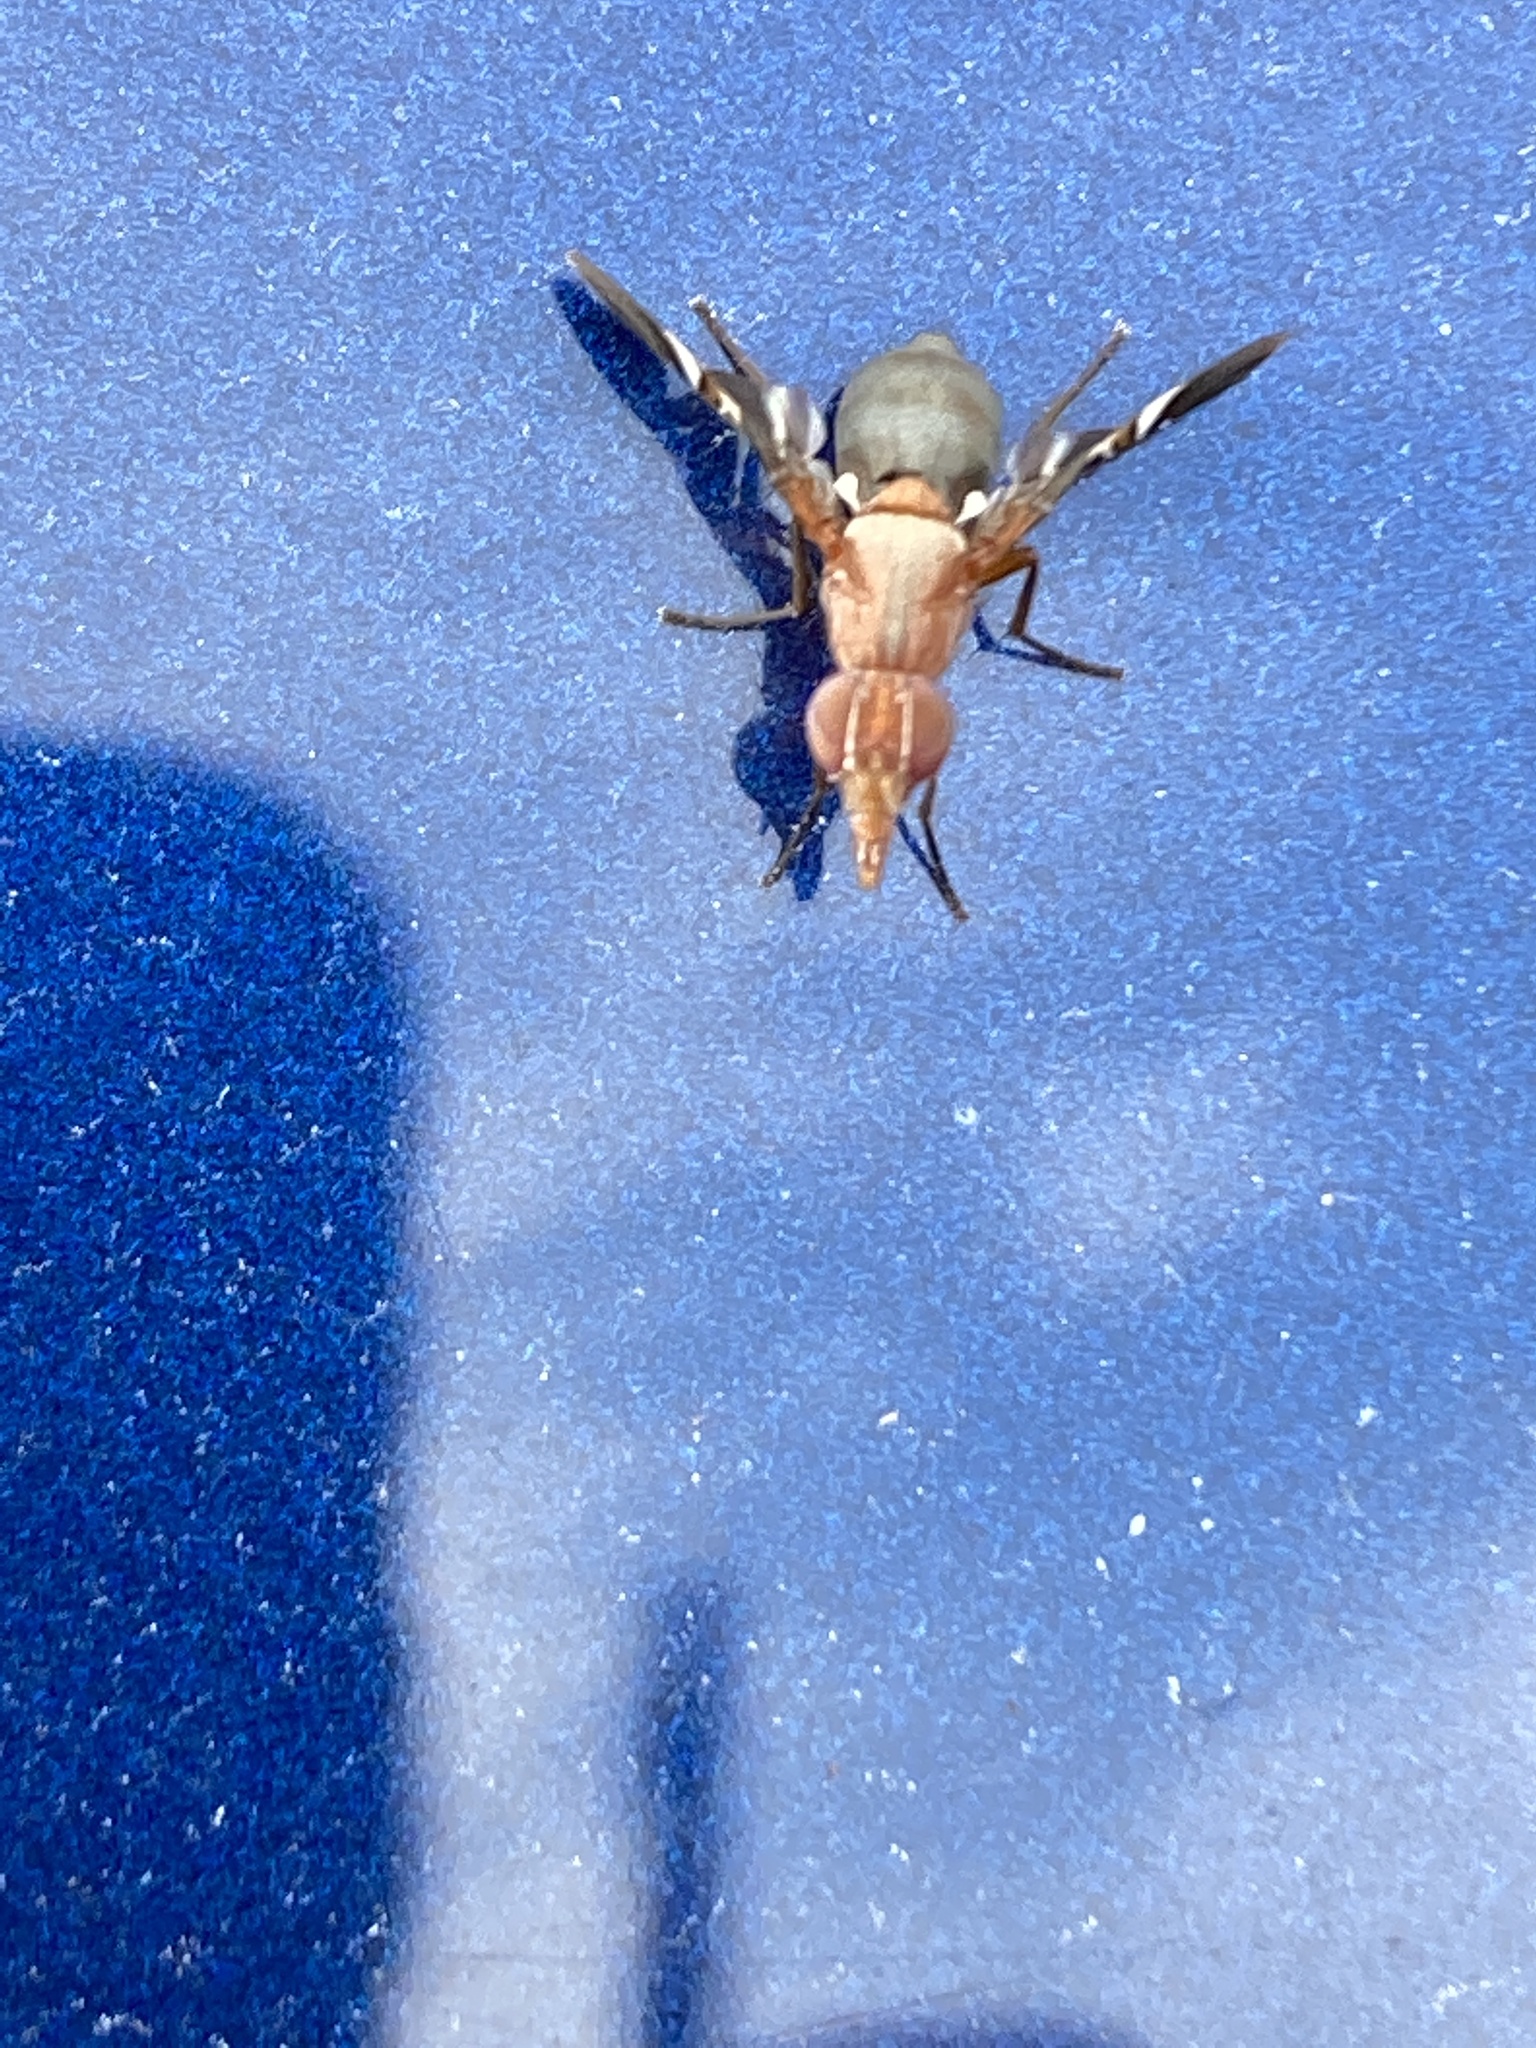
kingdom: Animalia
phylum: Arthropoda
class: Insecta
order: Diptera
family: Ulidiidae
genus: Delphinia
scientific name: Delphinia picta
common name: Common picture-winged fly
